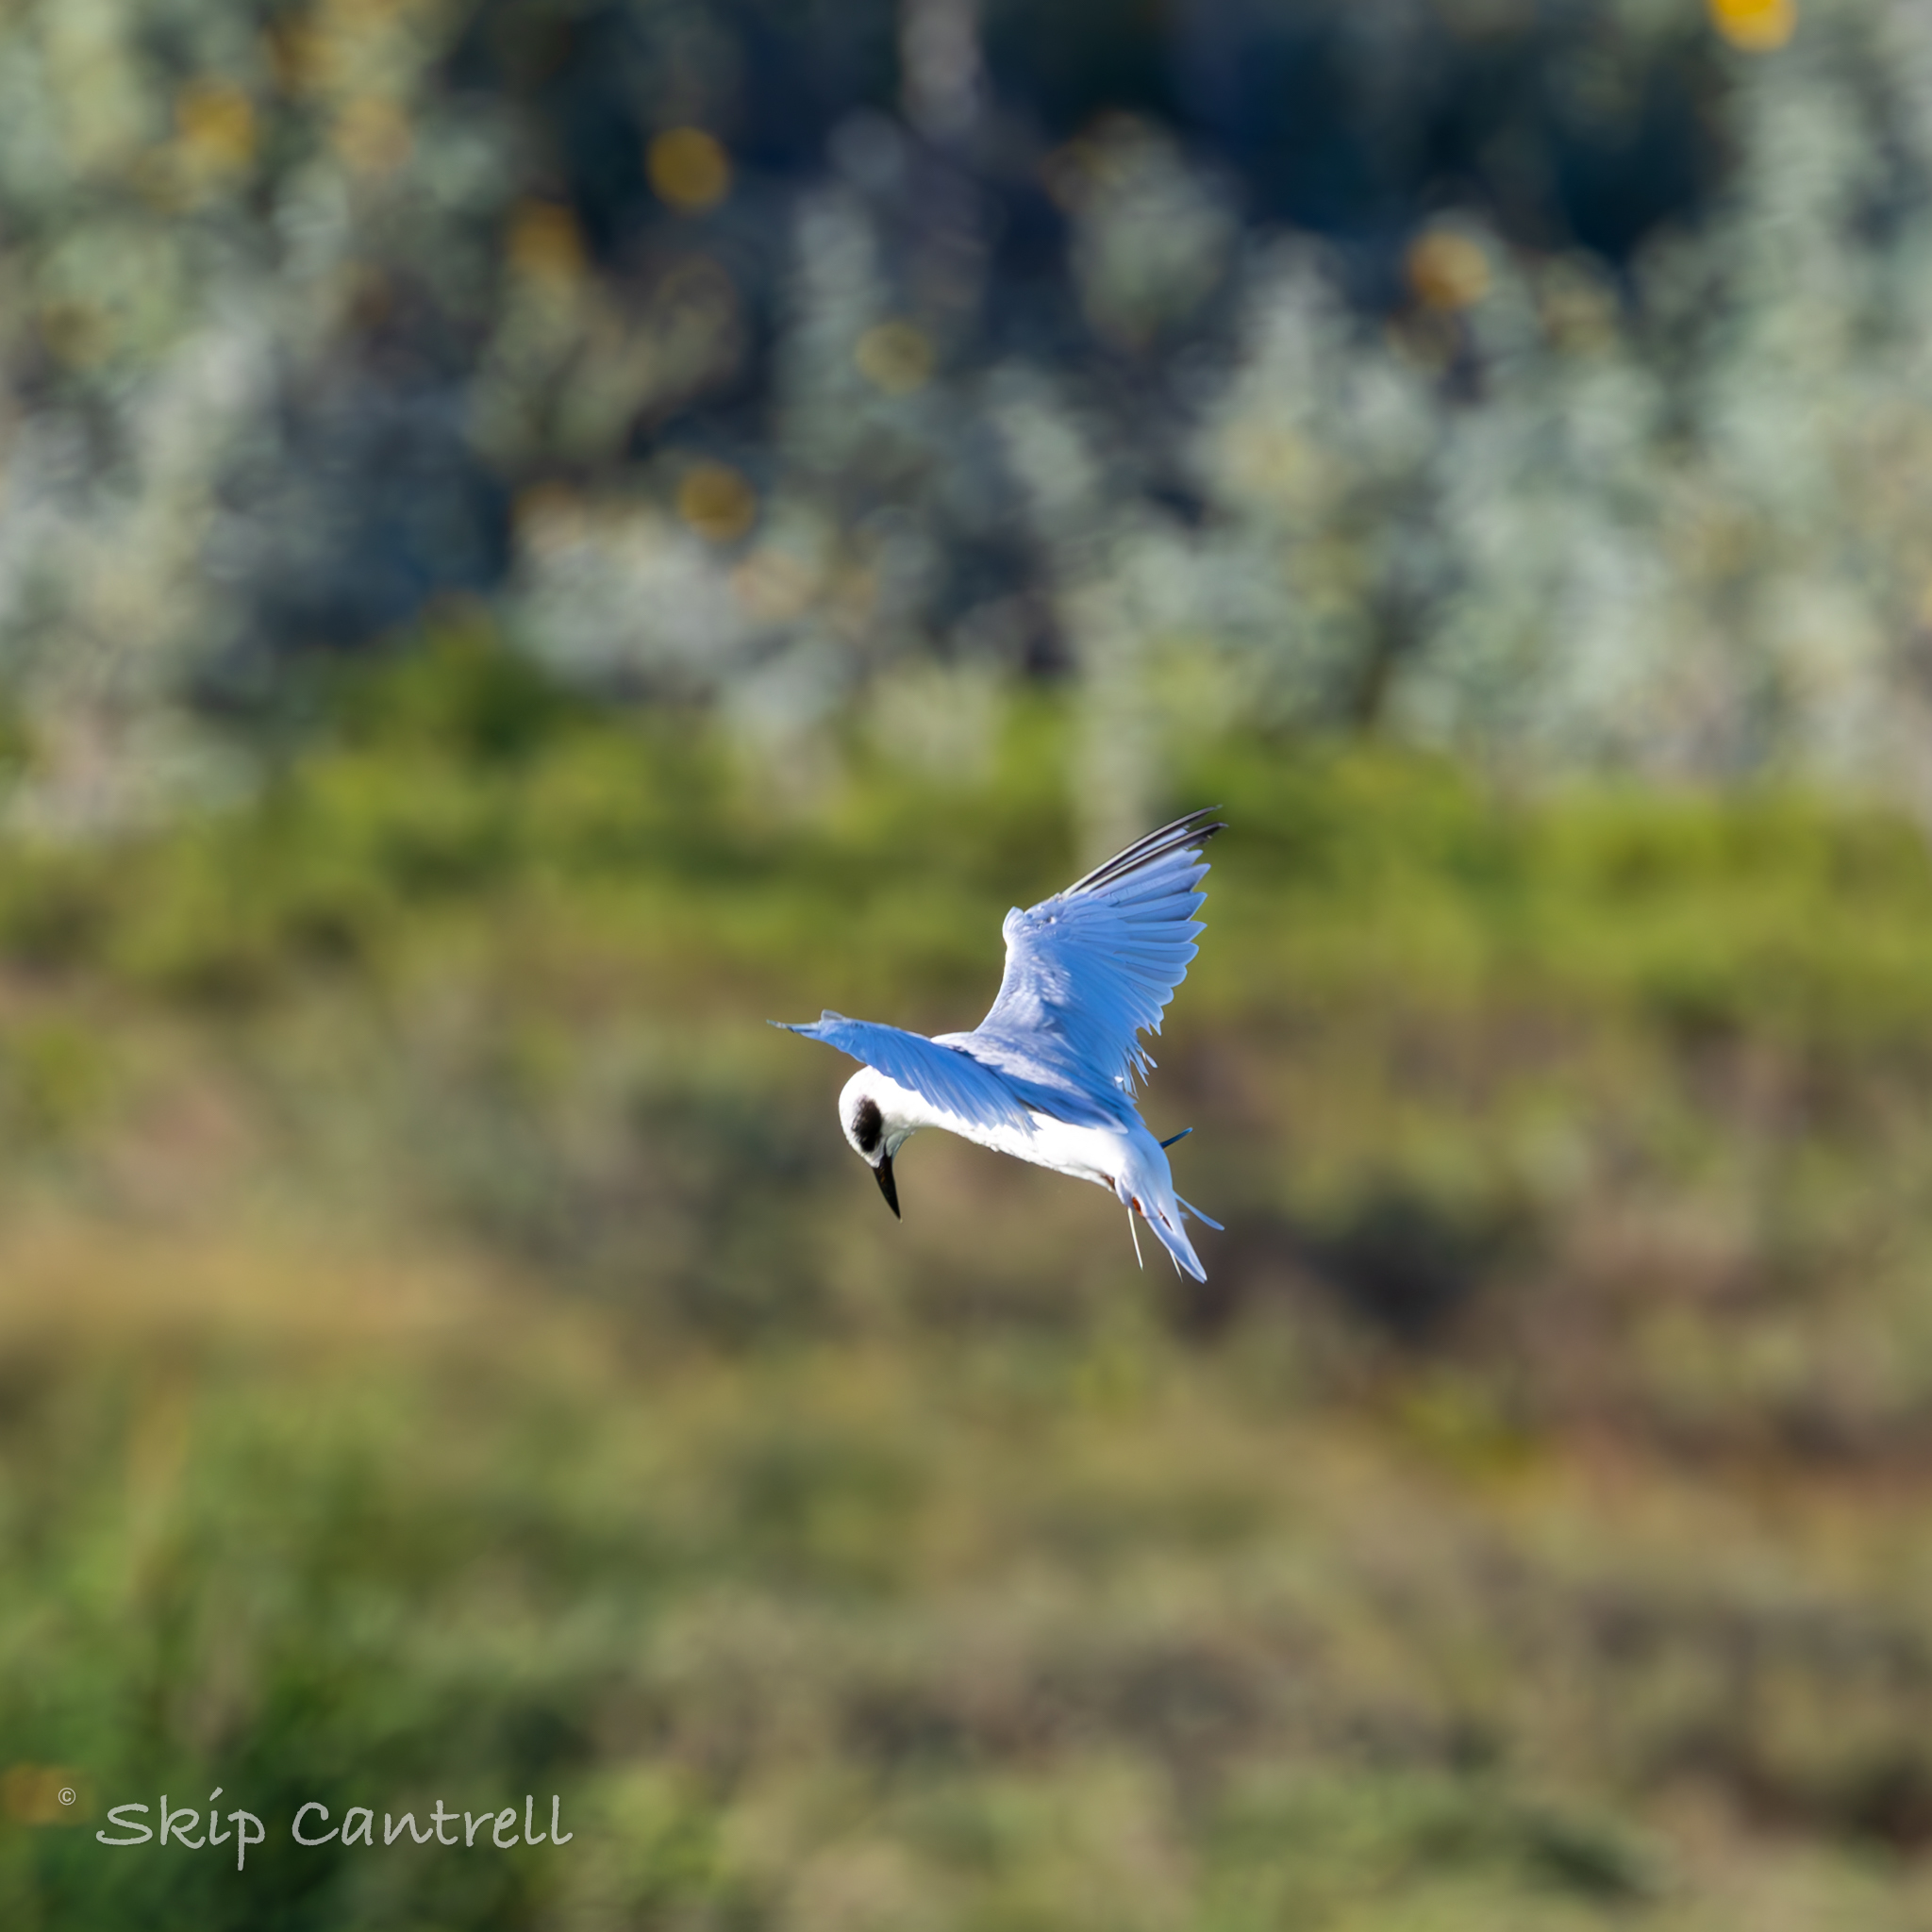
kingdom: Animalia
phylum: Chordata
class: Aves
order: Charadriiformes
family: Laridae
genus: Sterna
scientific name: Sterna forsteri
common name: Forster's tern
